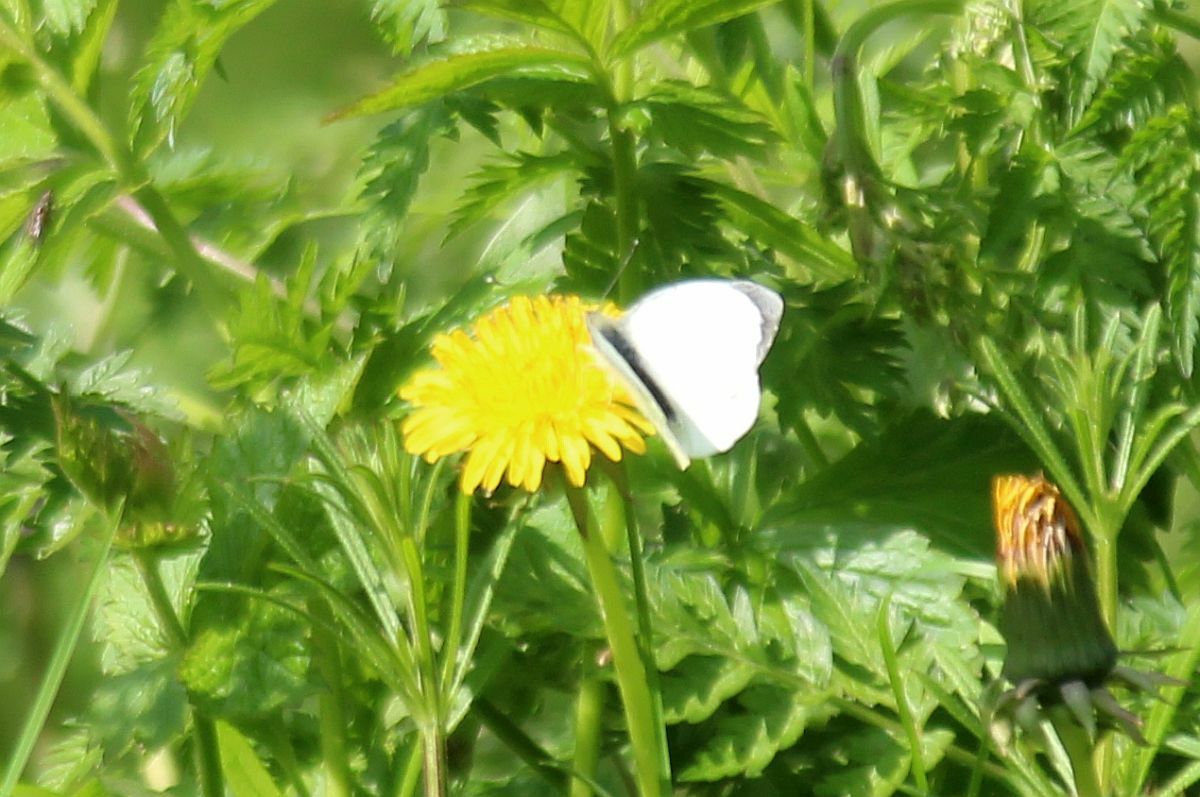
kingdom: Animalia
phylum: Arthropoda
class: Insecta
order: Lepidoptera
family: Pieridae
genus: Pieris
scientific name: Pieris brassicae
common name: Large white
